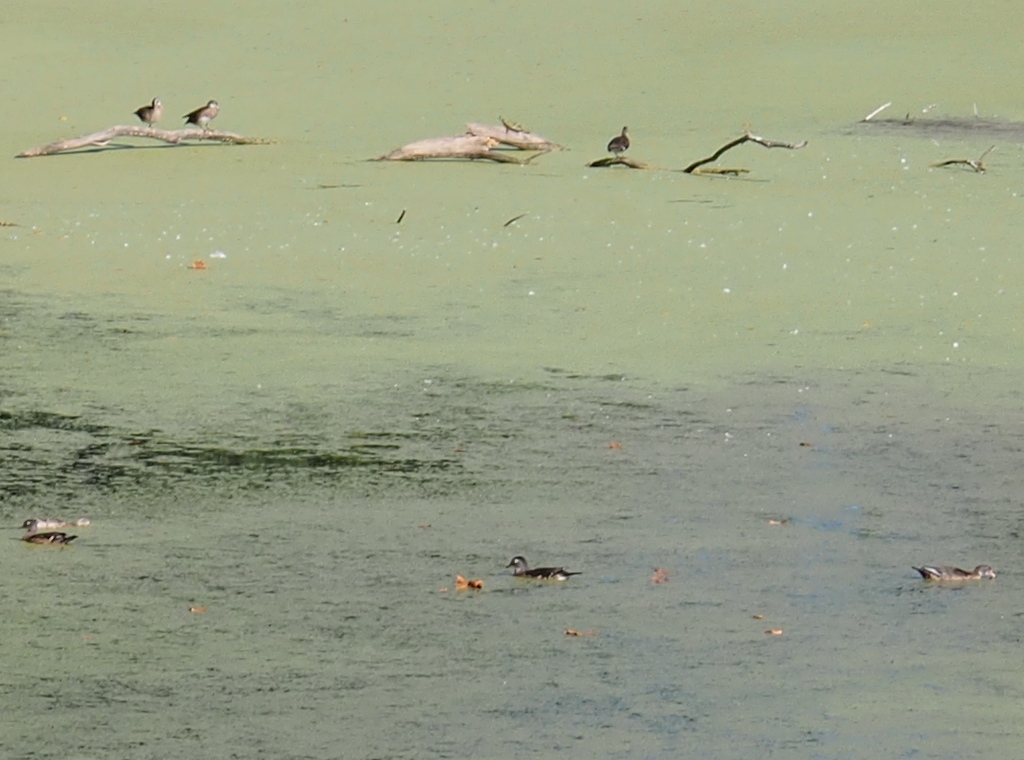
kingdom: Animalia
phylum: Chordata
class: Aves
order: Anseriformes
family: Anatidae
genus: Aix
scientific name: Aix sponsa
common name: Wood duck
